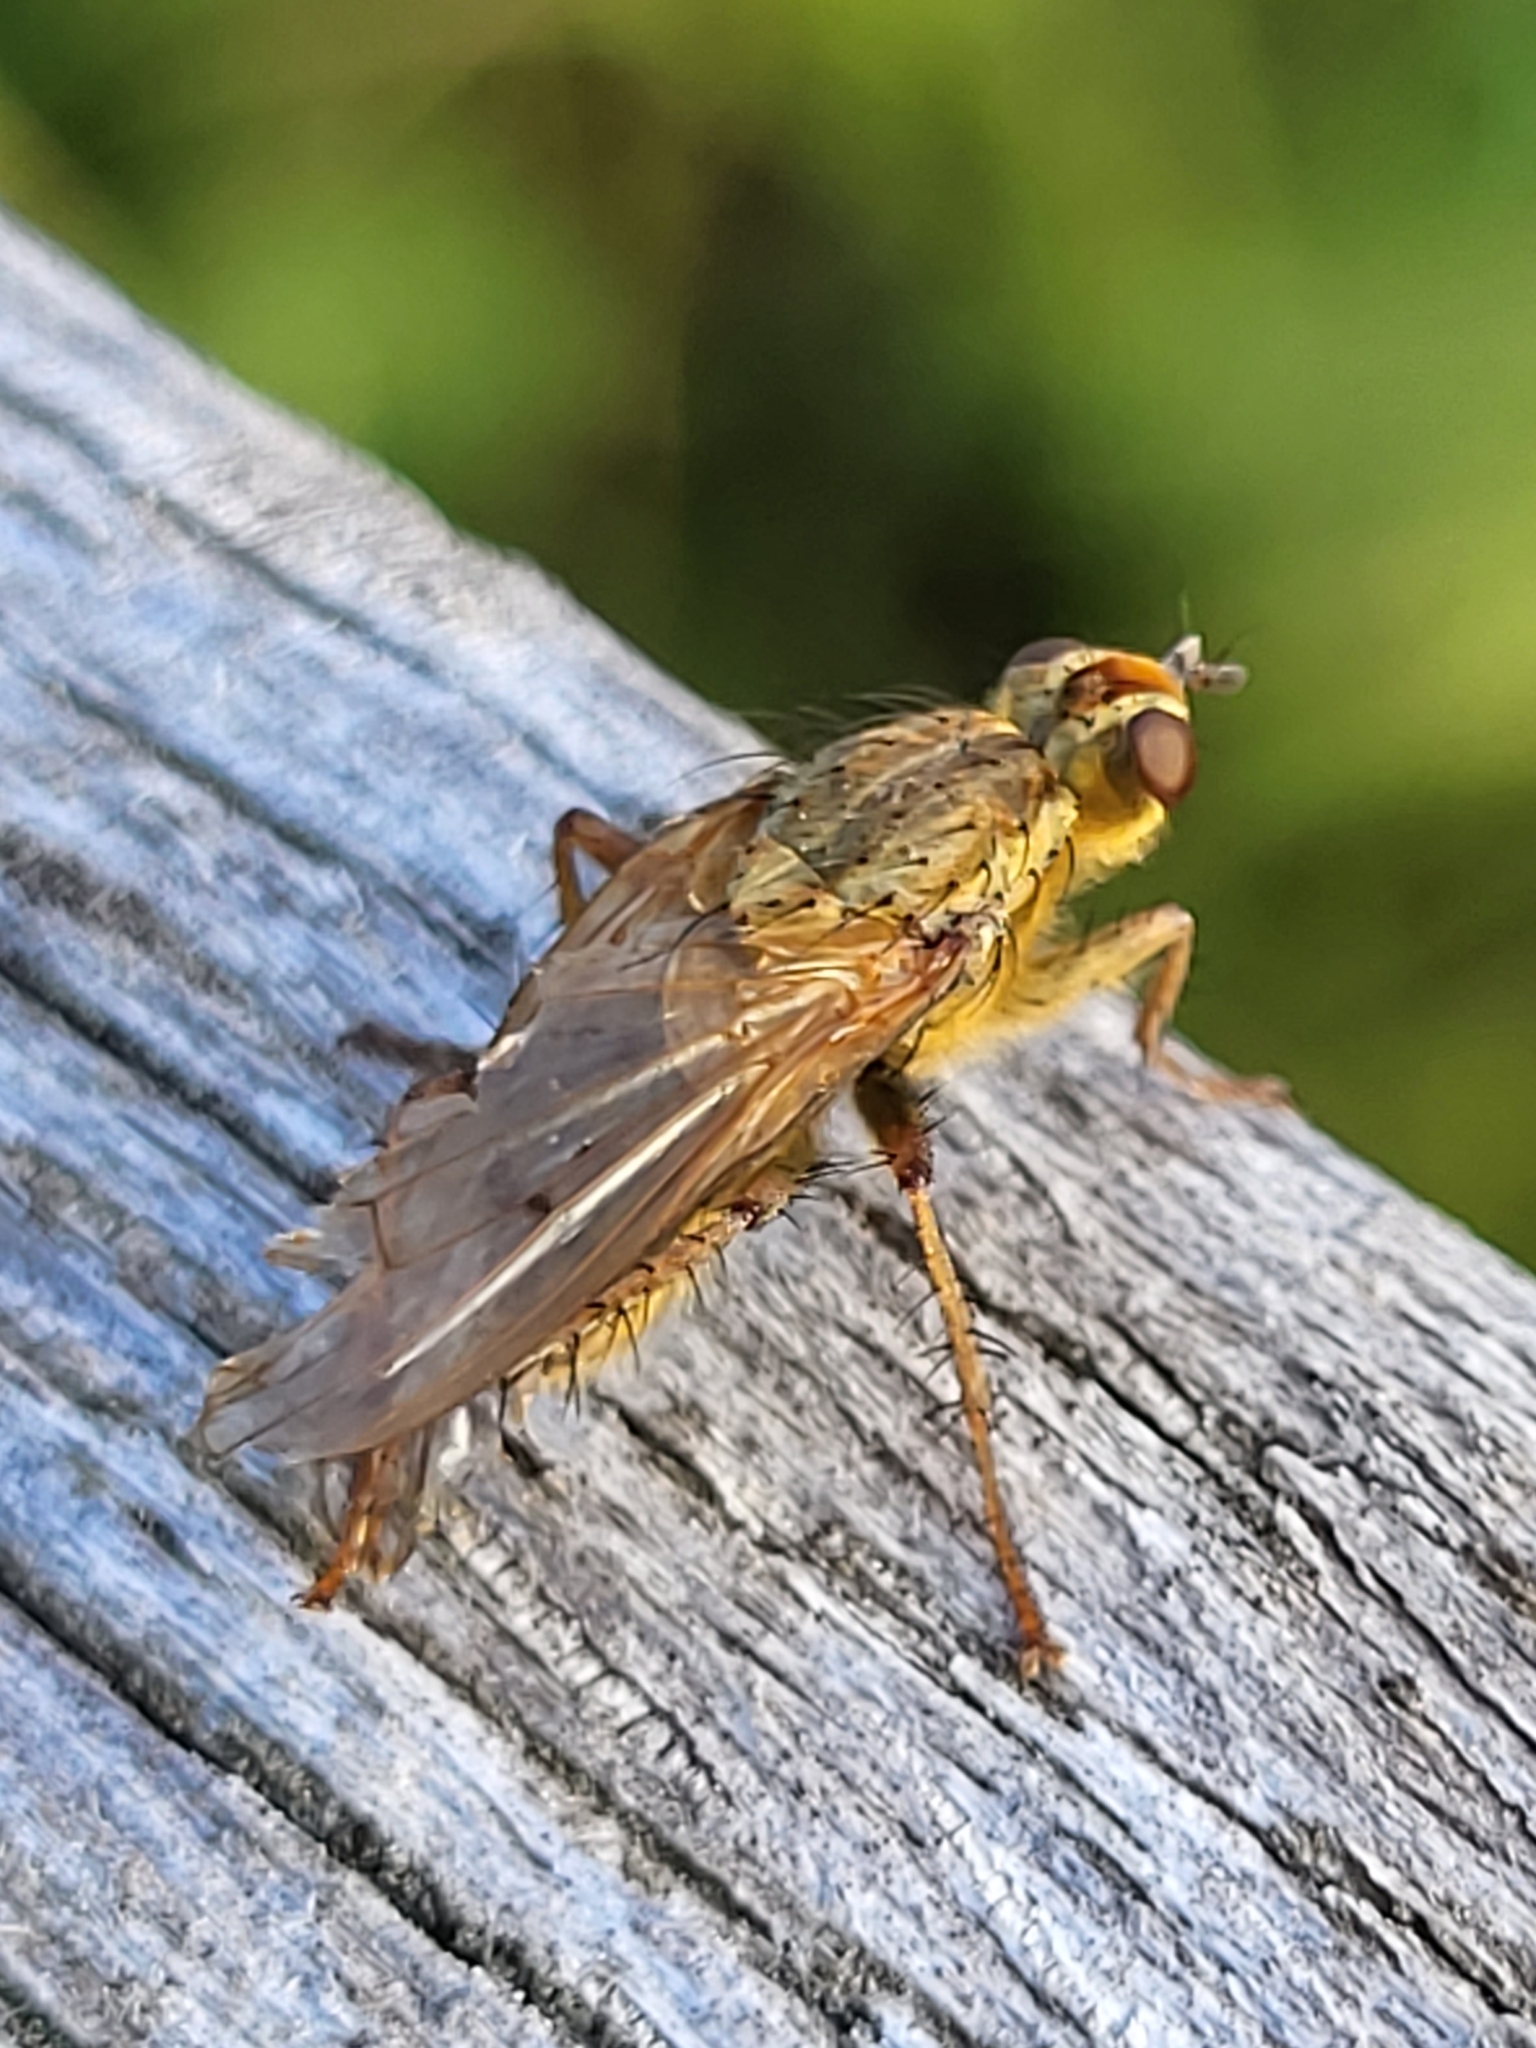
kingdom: Animalia
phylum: Arthropoda
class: Insecta
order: Diptera
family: Scathophagidae
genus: Scathophaga
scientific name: Scathophaga stercoraria
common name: Yellow dung fly
